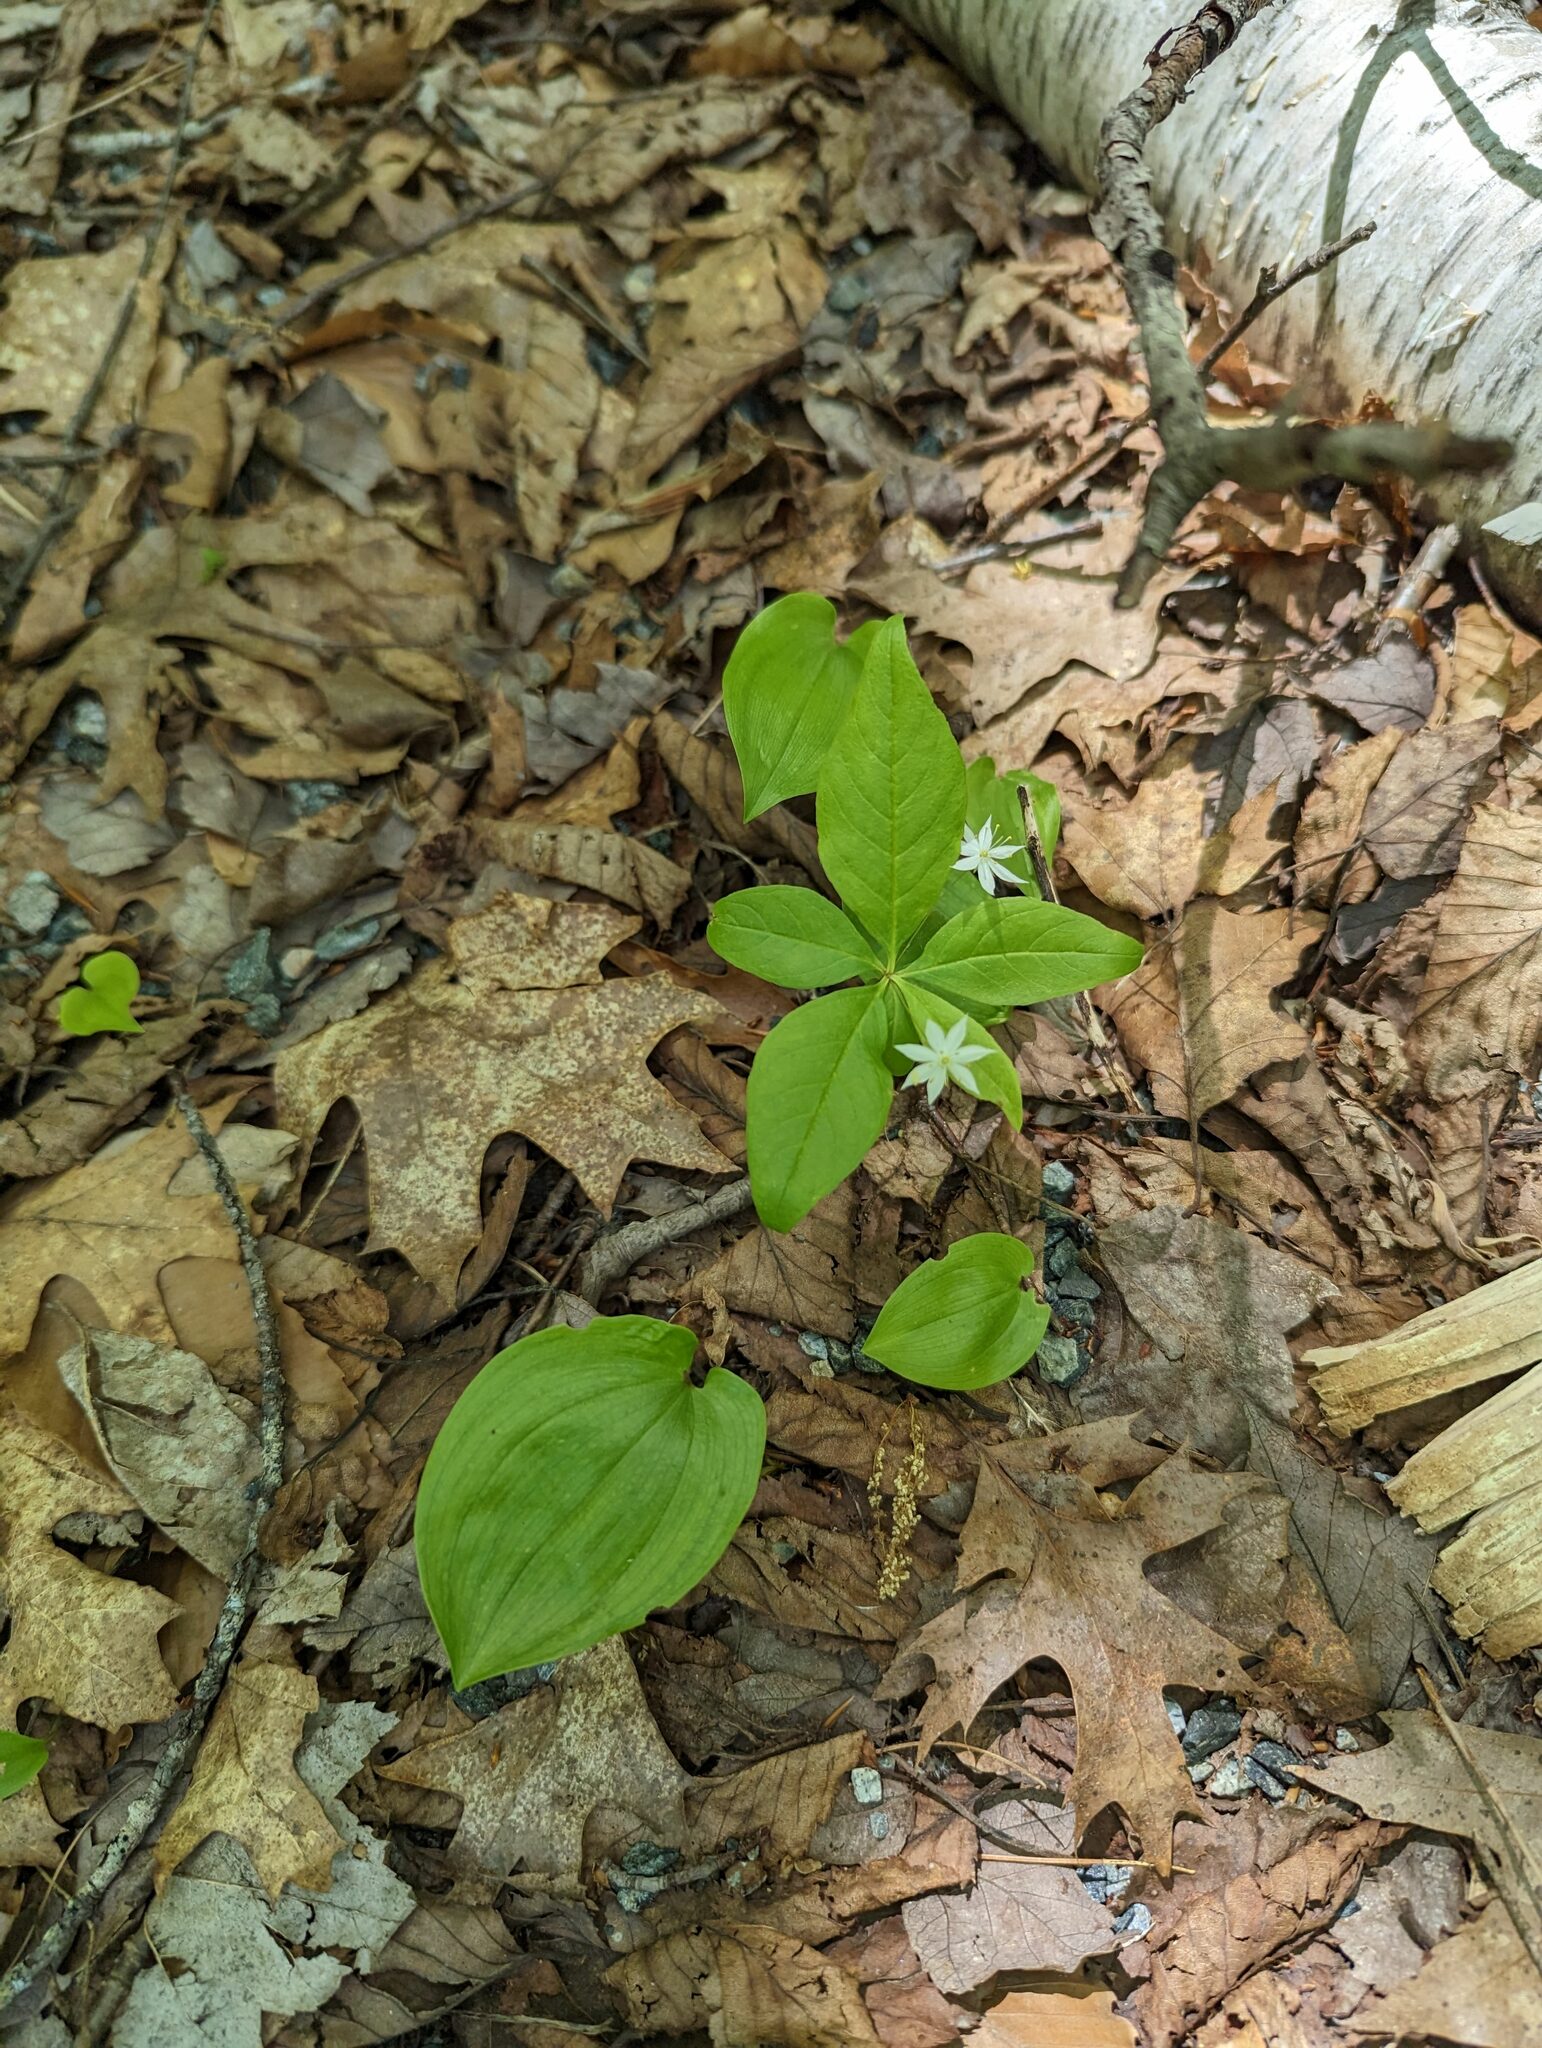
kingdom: Plantae
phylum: Tracheophyta
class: Magnoliopsida
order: Ericales
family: Primulaceae
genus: Lysimachia
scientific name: Lysimachia borealis
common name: American starflower
